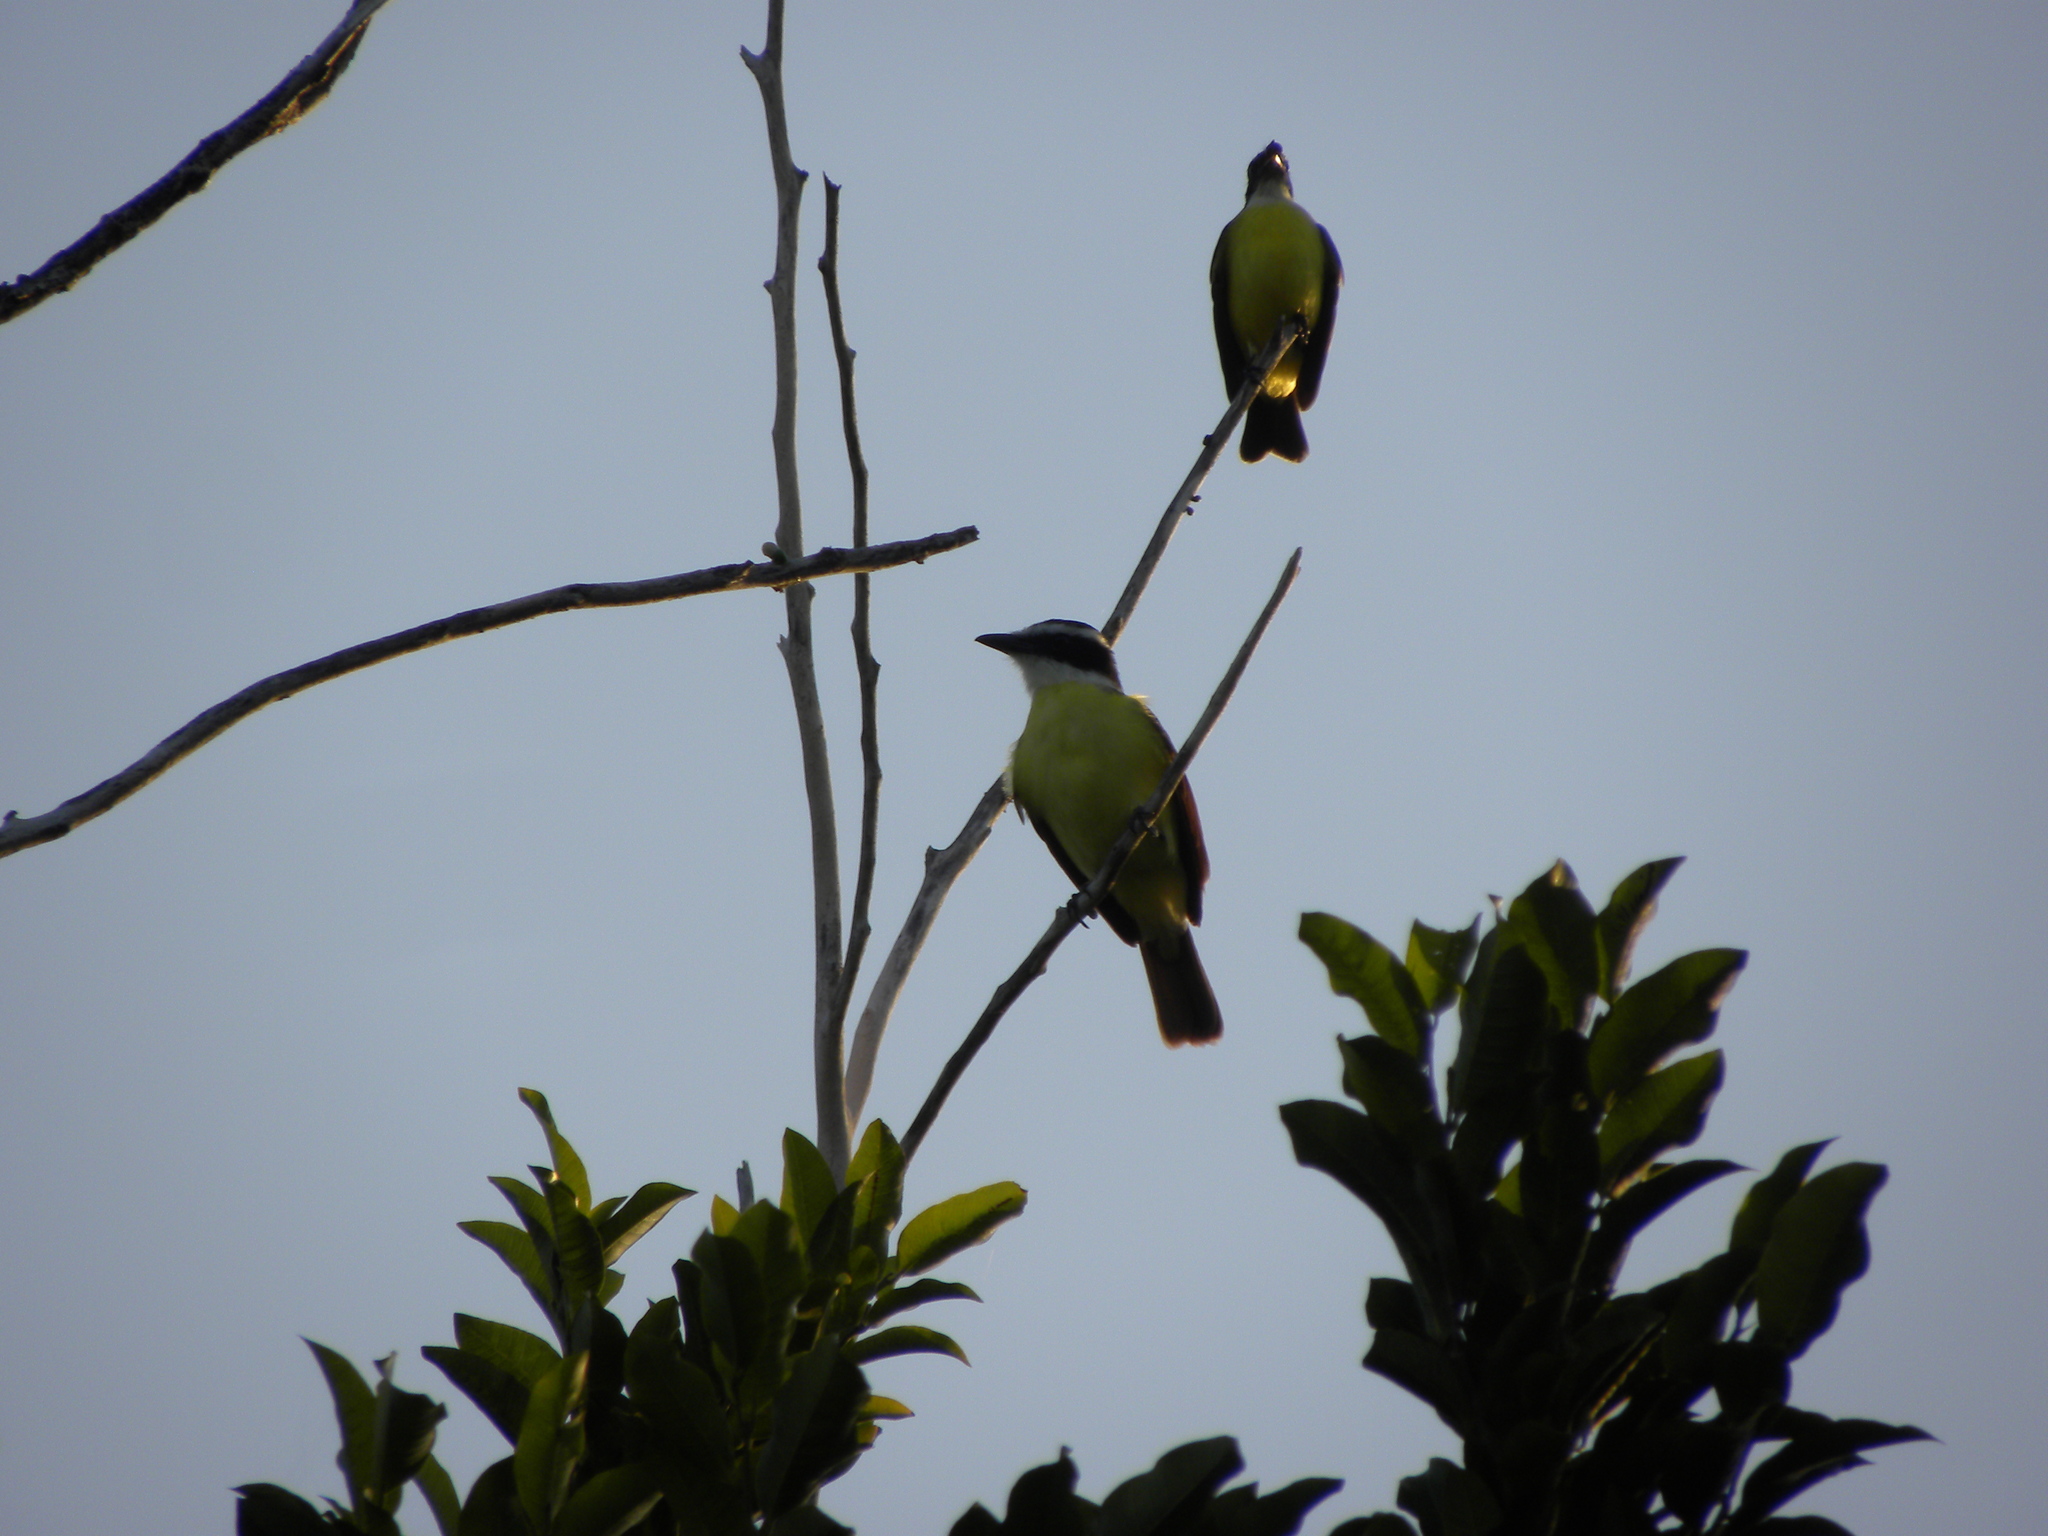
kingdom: Animalia
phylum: Chordata
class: Aves
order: Passeriformes
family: Tyrannidae
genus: Pitangus
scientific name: Pitangus sulphuratus
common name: Great kiskadee
